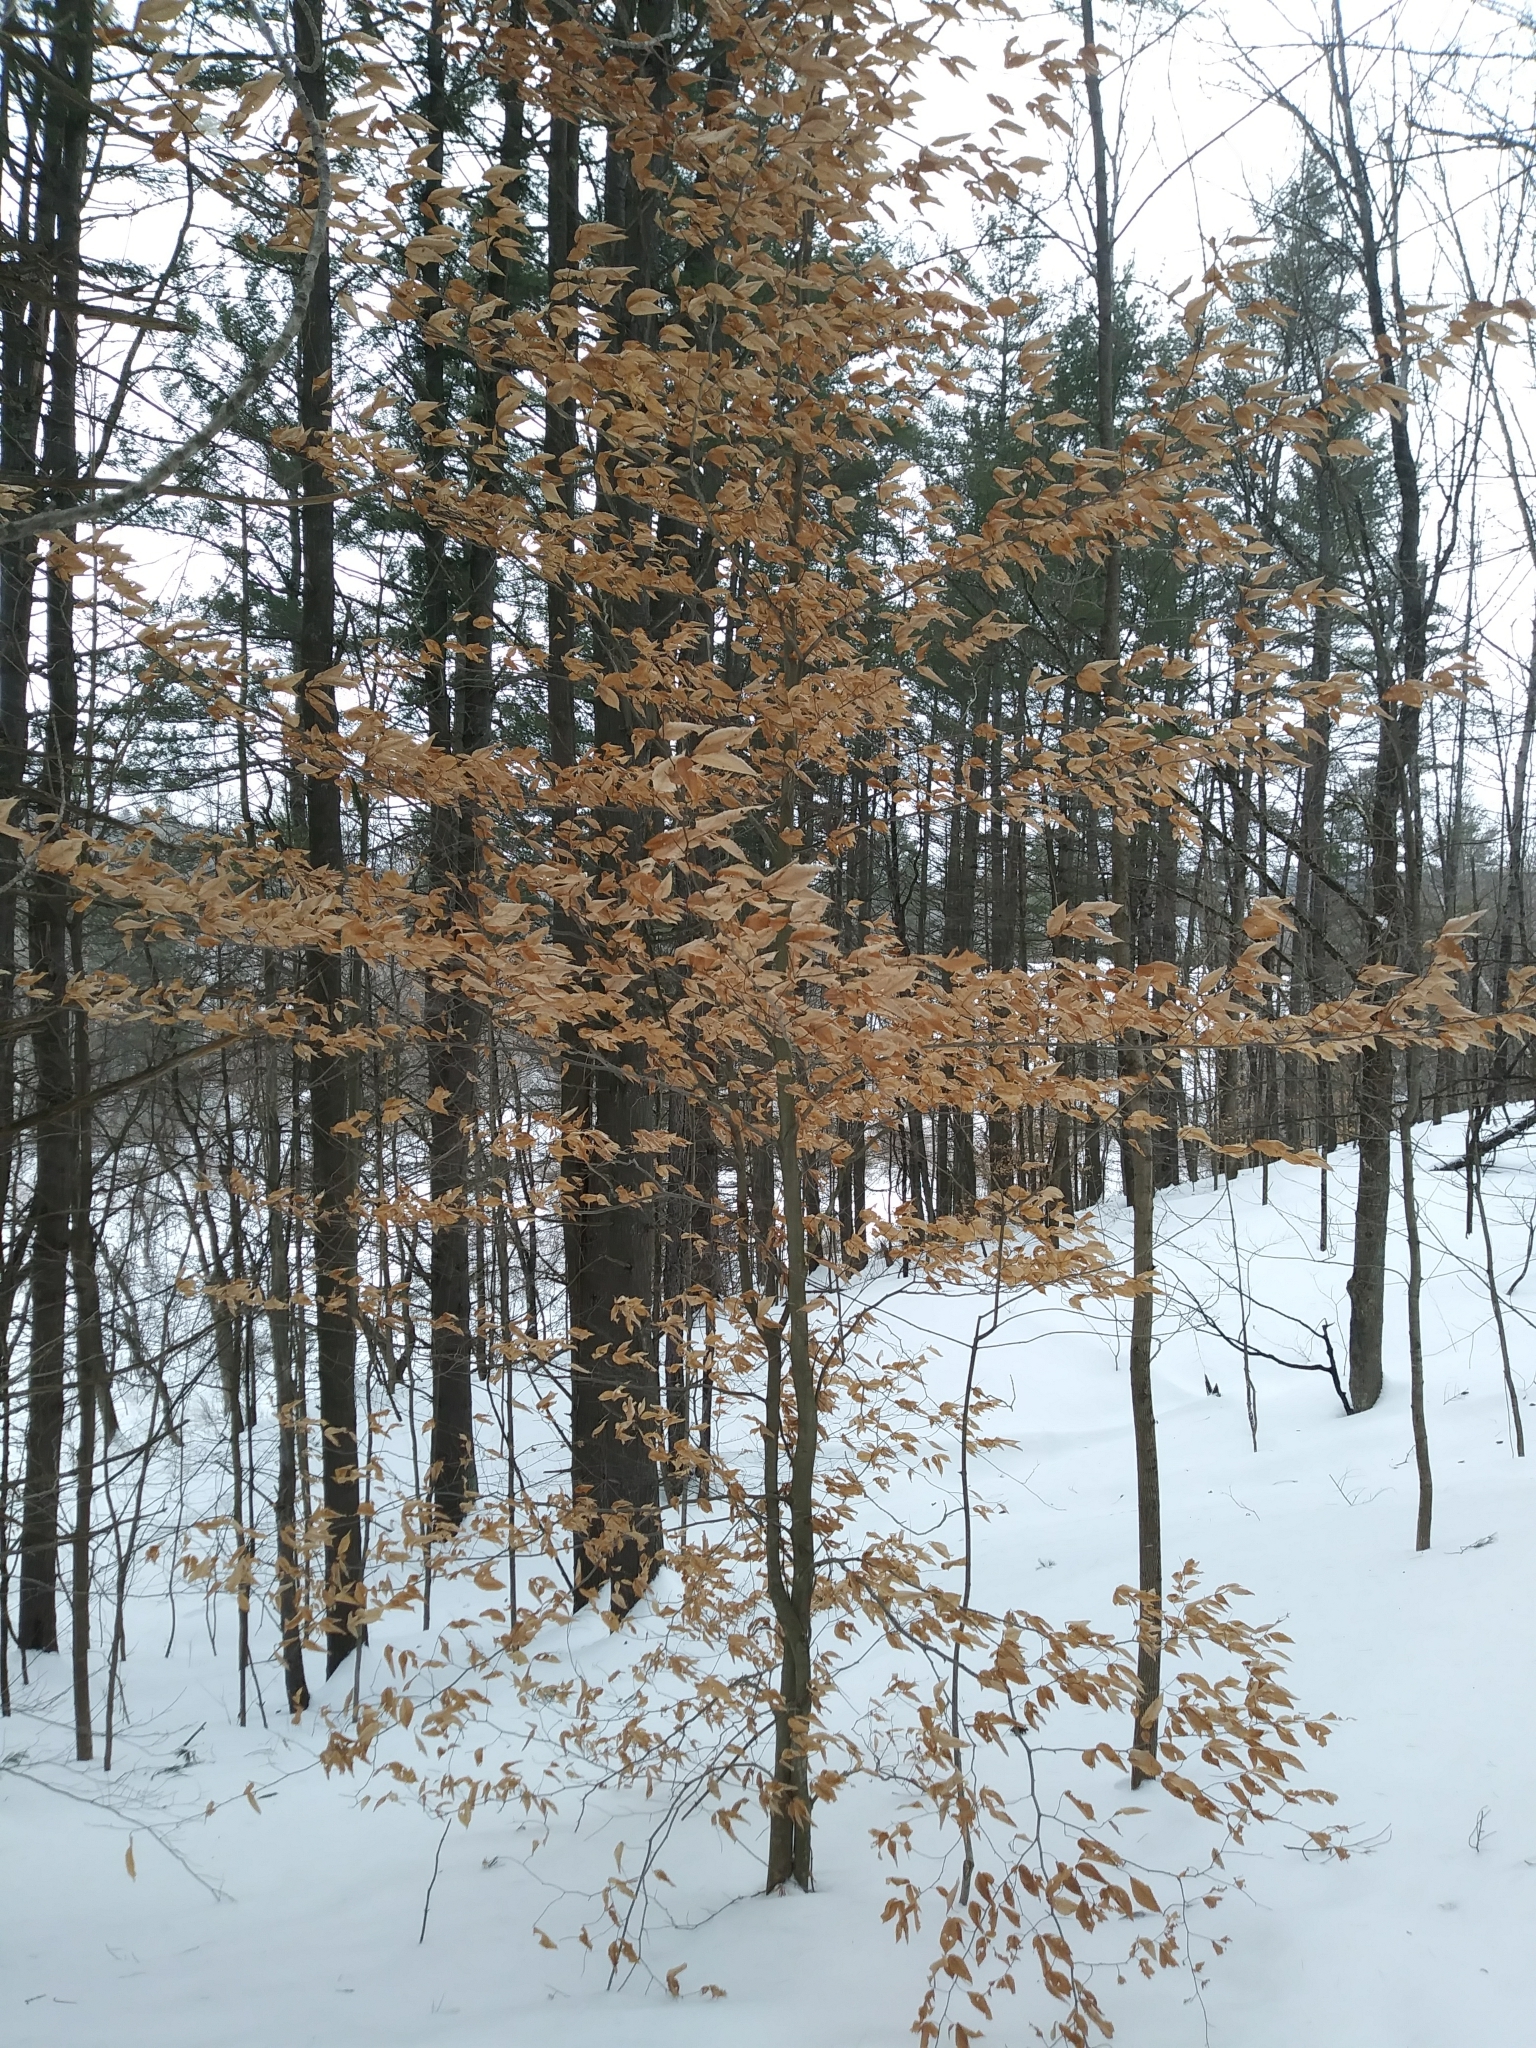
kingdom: Plantae
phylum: Tracheophyta
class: Magnoliopsida
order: Fagales
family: Fagaceae
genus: Fagus
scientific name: Fagus grandifolia
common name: American beech
